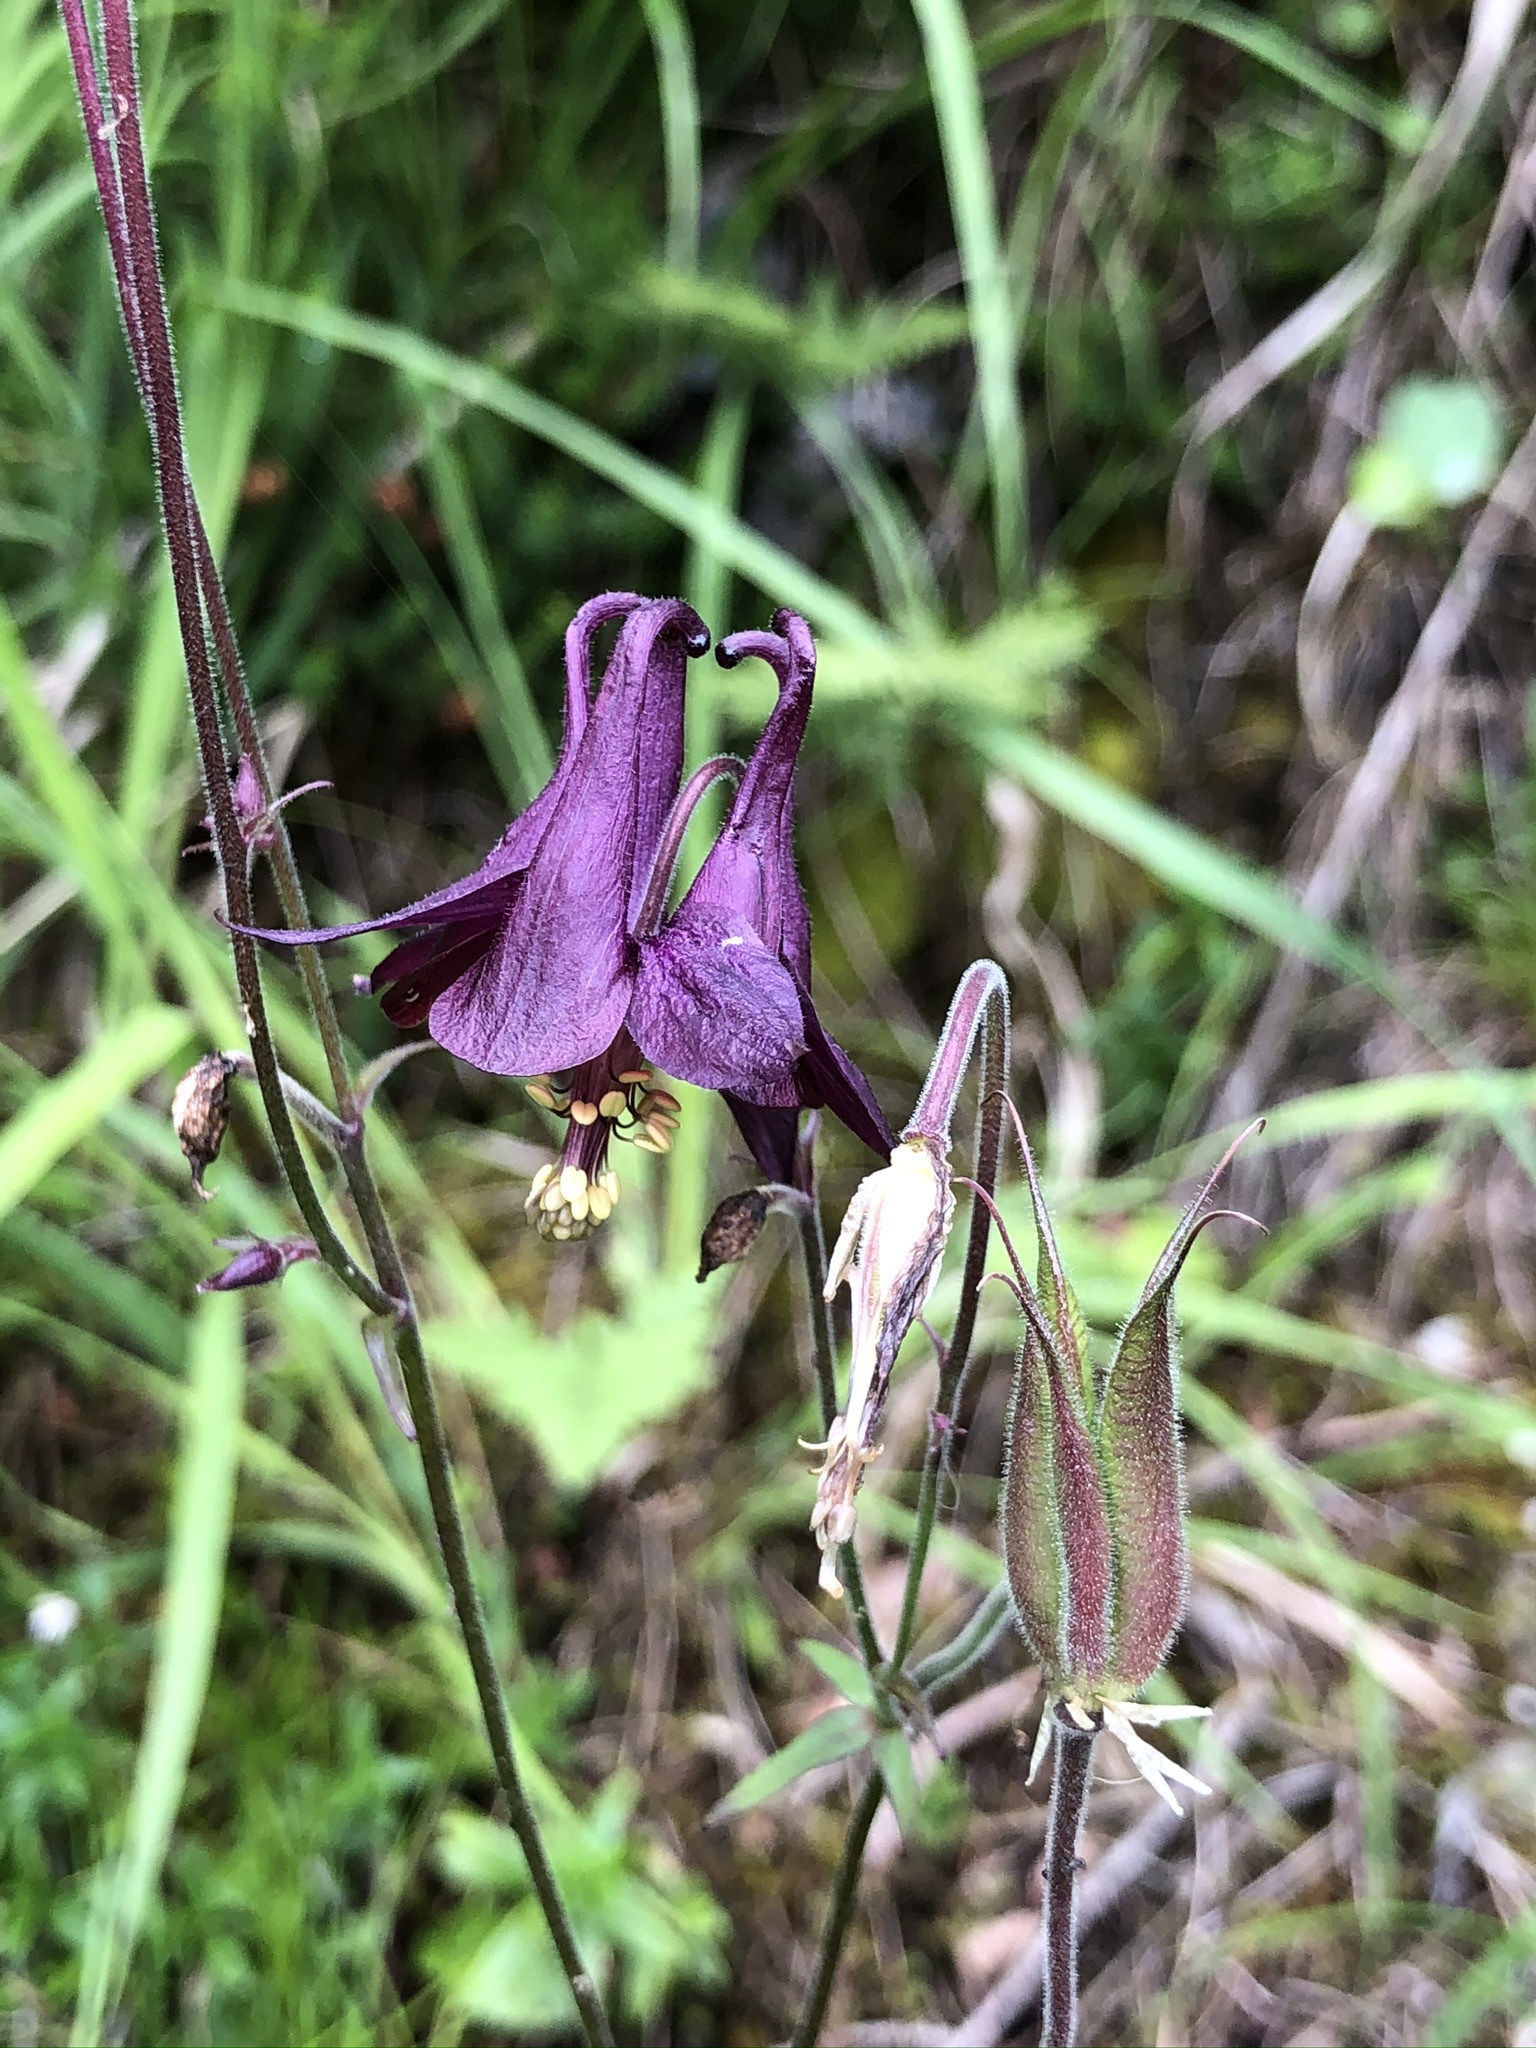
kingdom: Plantae
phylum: Tracheophyta
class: Magnoliopsida
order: Ranunculales
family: Ranunculaceae
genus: Aquilegia
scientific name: Aquilegia atrata
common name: Dark columbine
